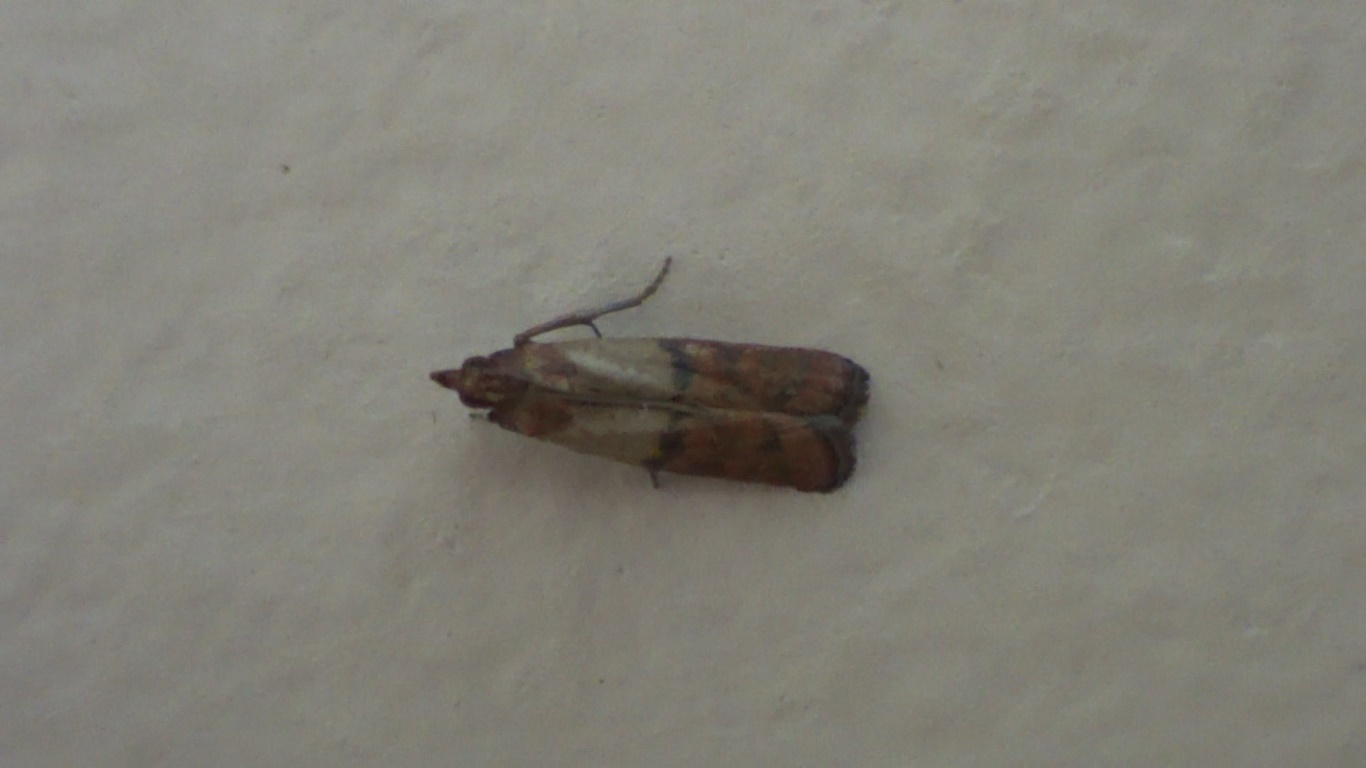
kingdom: Animalia
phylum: Arthropoda
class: Insecta
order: Lepidoptera
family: Pyralidae
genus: Plodia
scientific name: Plodia interpunctella
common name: Indian meal moth
